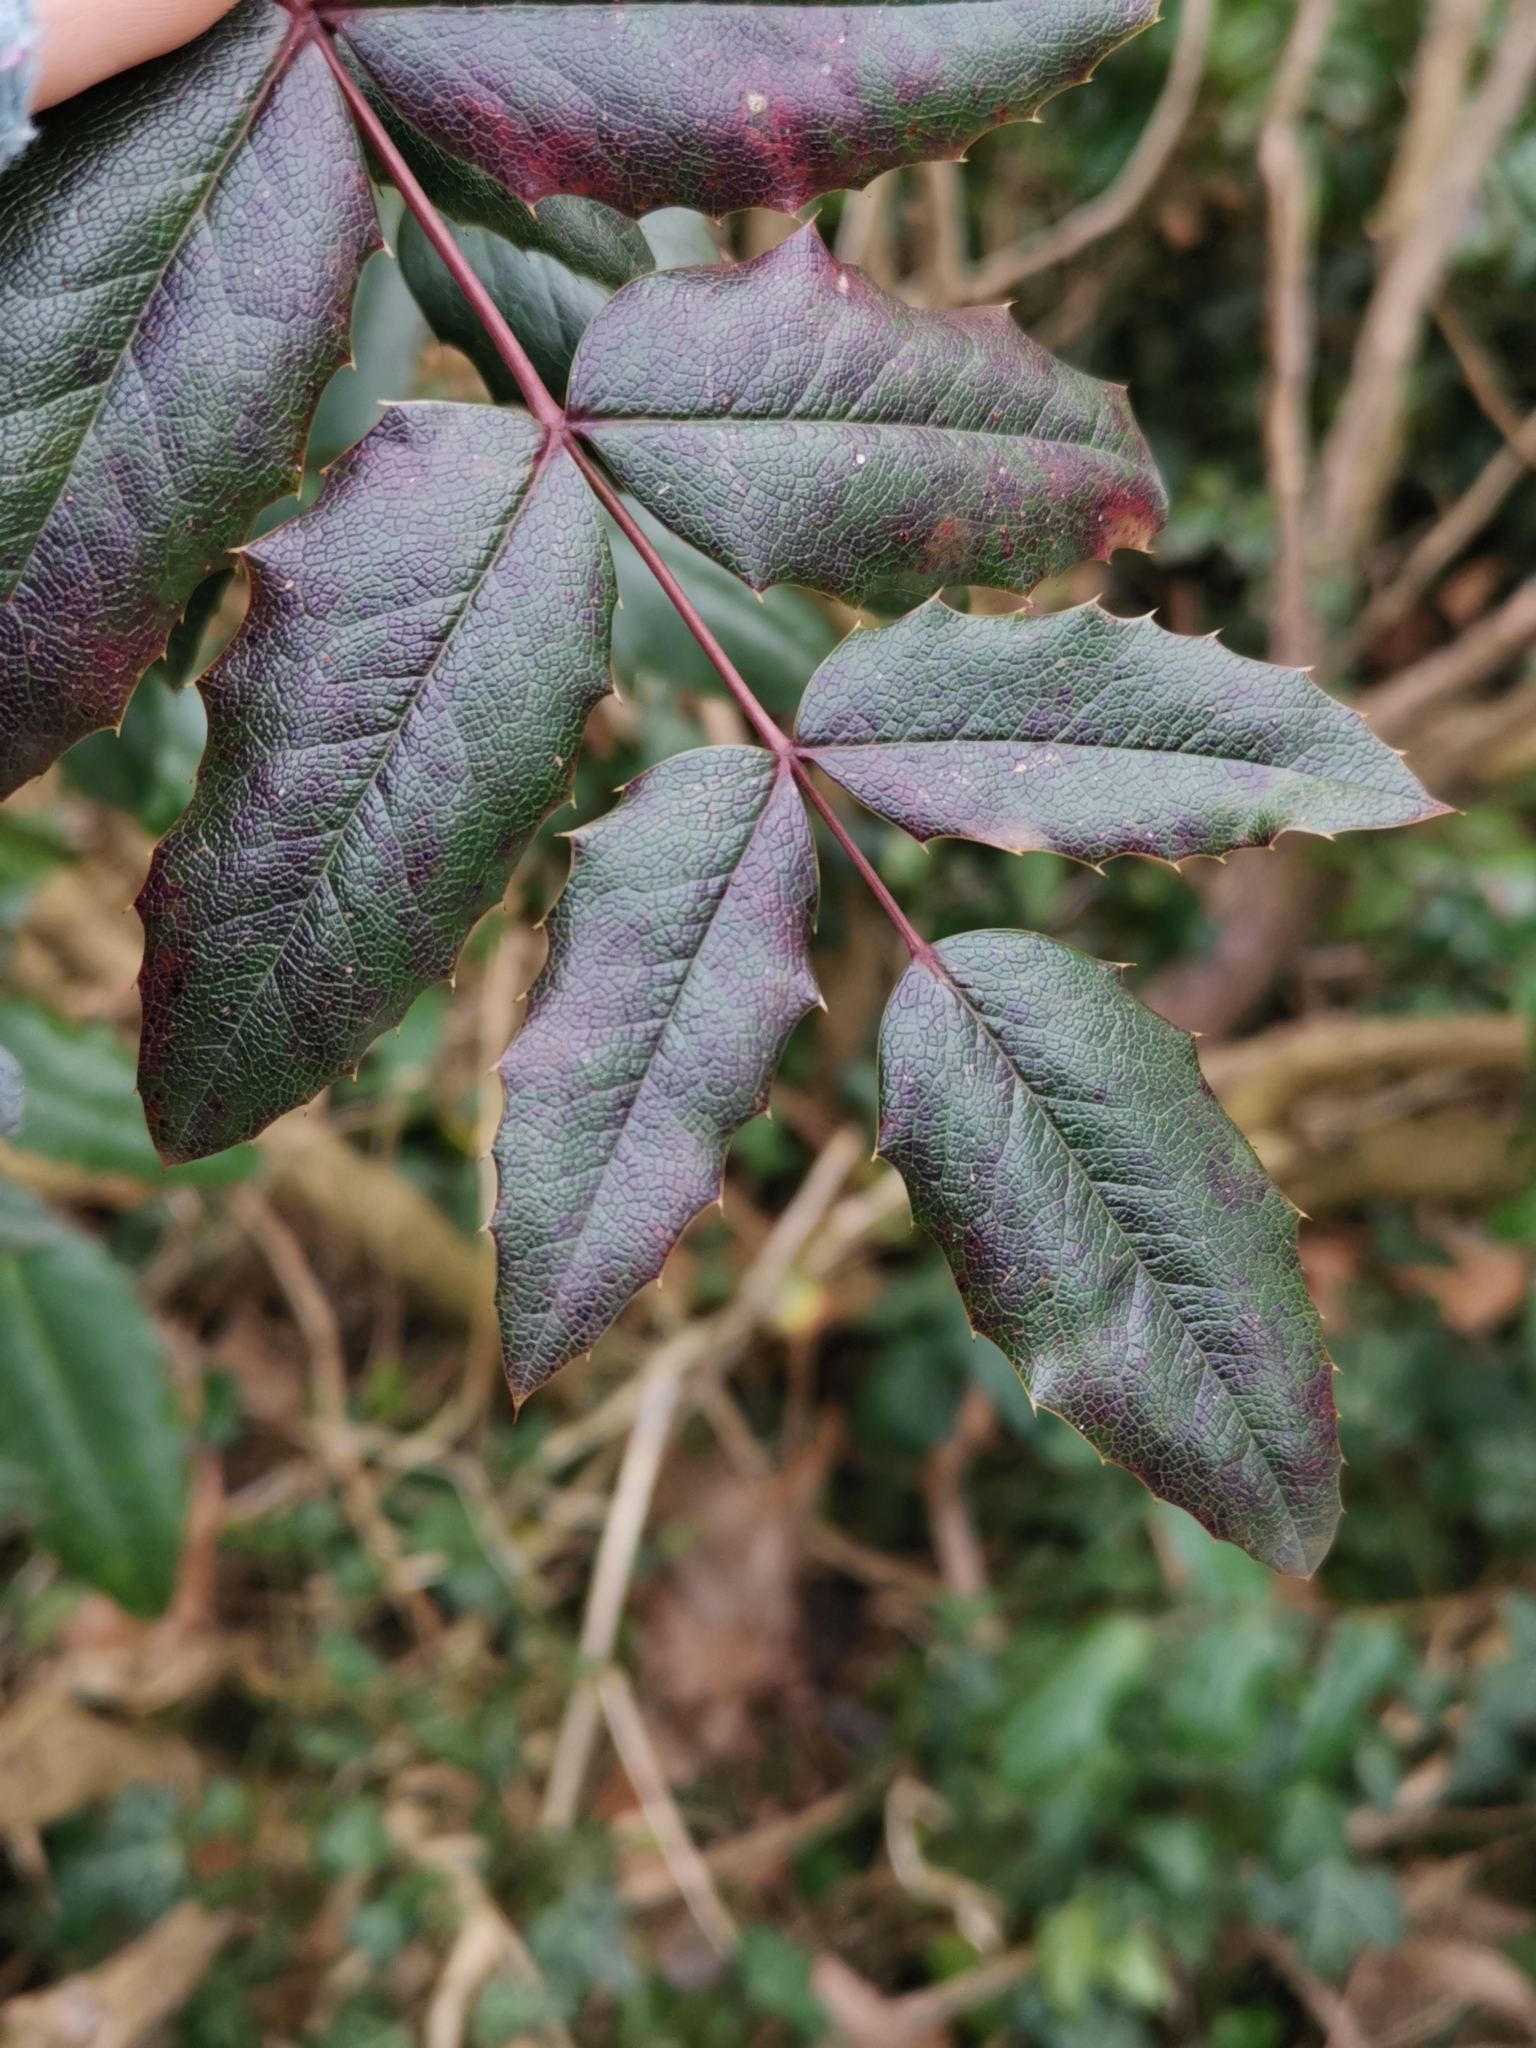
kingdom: Plantae
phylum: Tracheophyta
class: Magnoliopsida
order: Ranunculales
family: Berberidaceae
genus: Mahonia
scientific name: Mahonia aquifolium
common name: Oregon-grape
